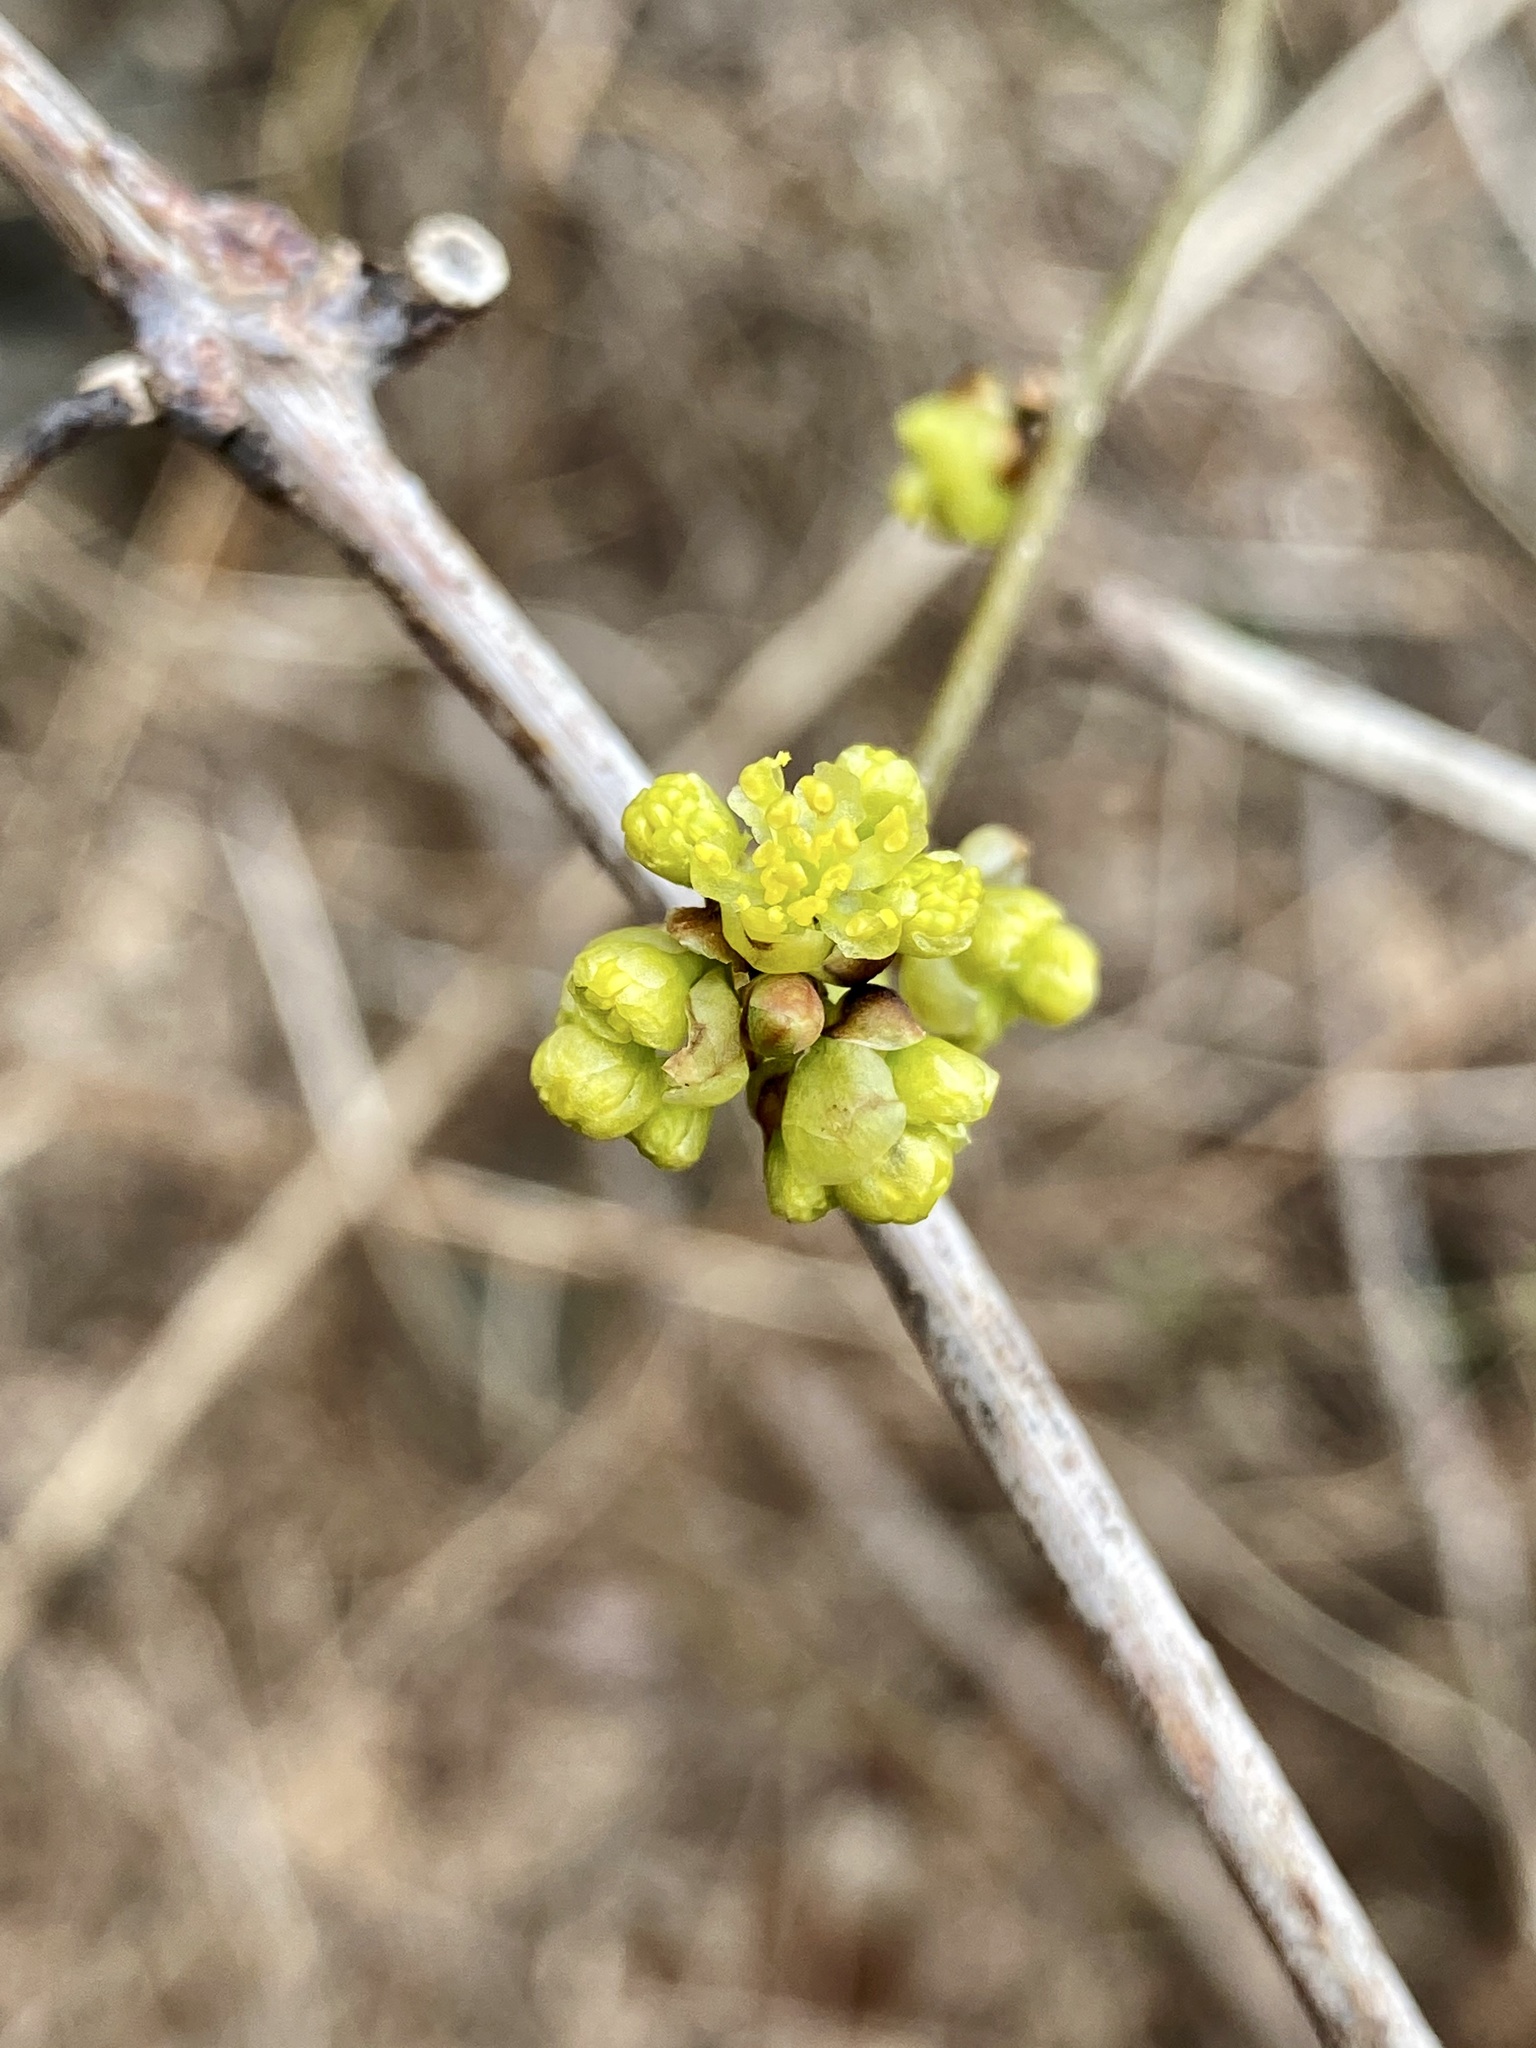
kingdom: Plantae
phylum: Tracheophyta
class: Magnoliopsida
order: Laurales
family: Lauraceae
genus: Lindera
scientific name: Lindera benzoin
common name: Spicebush
